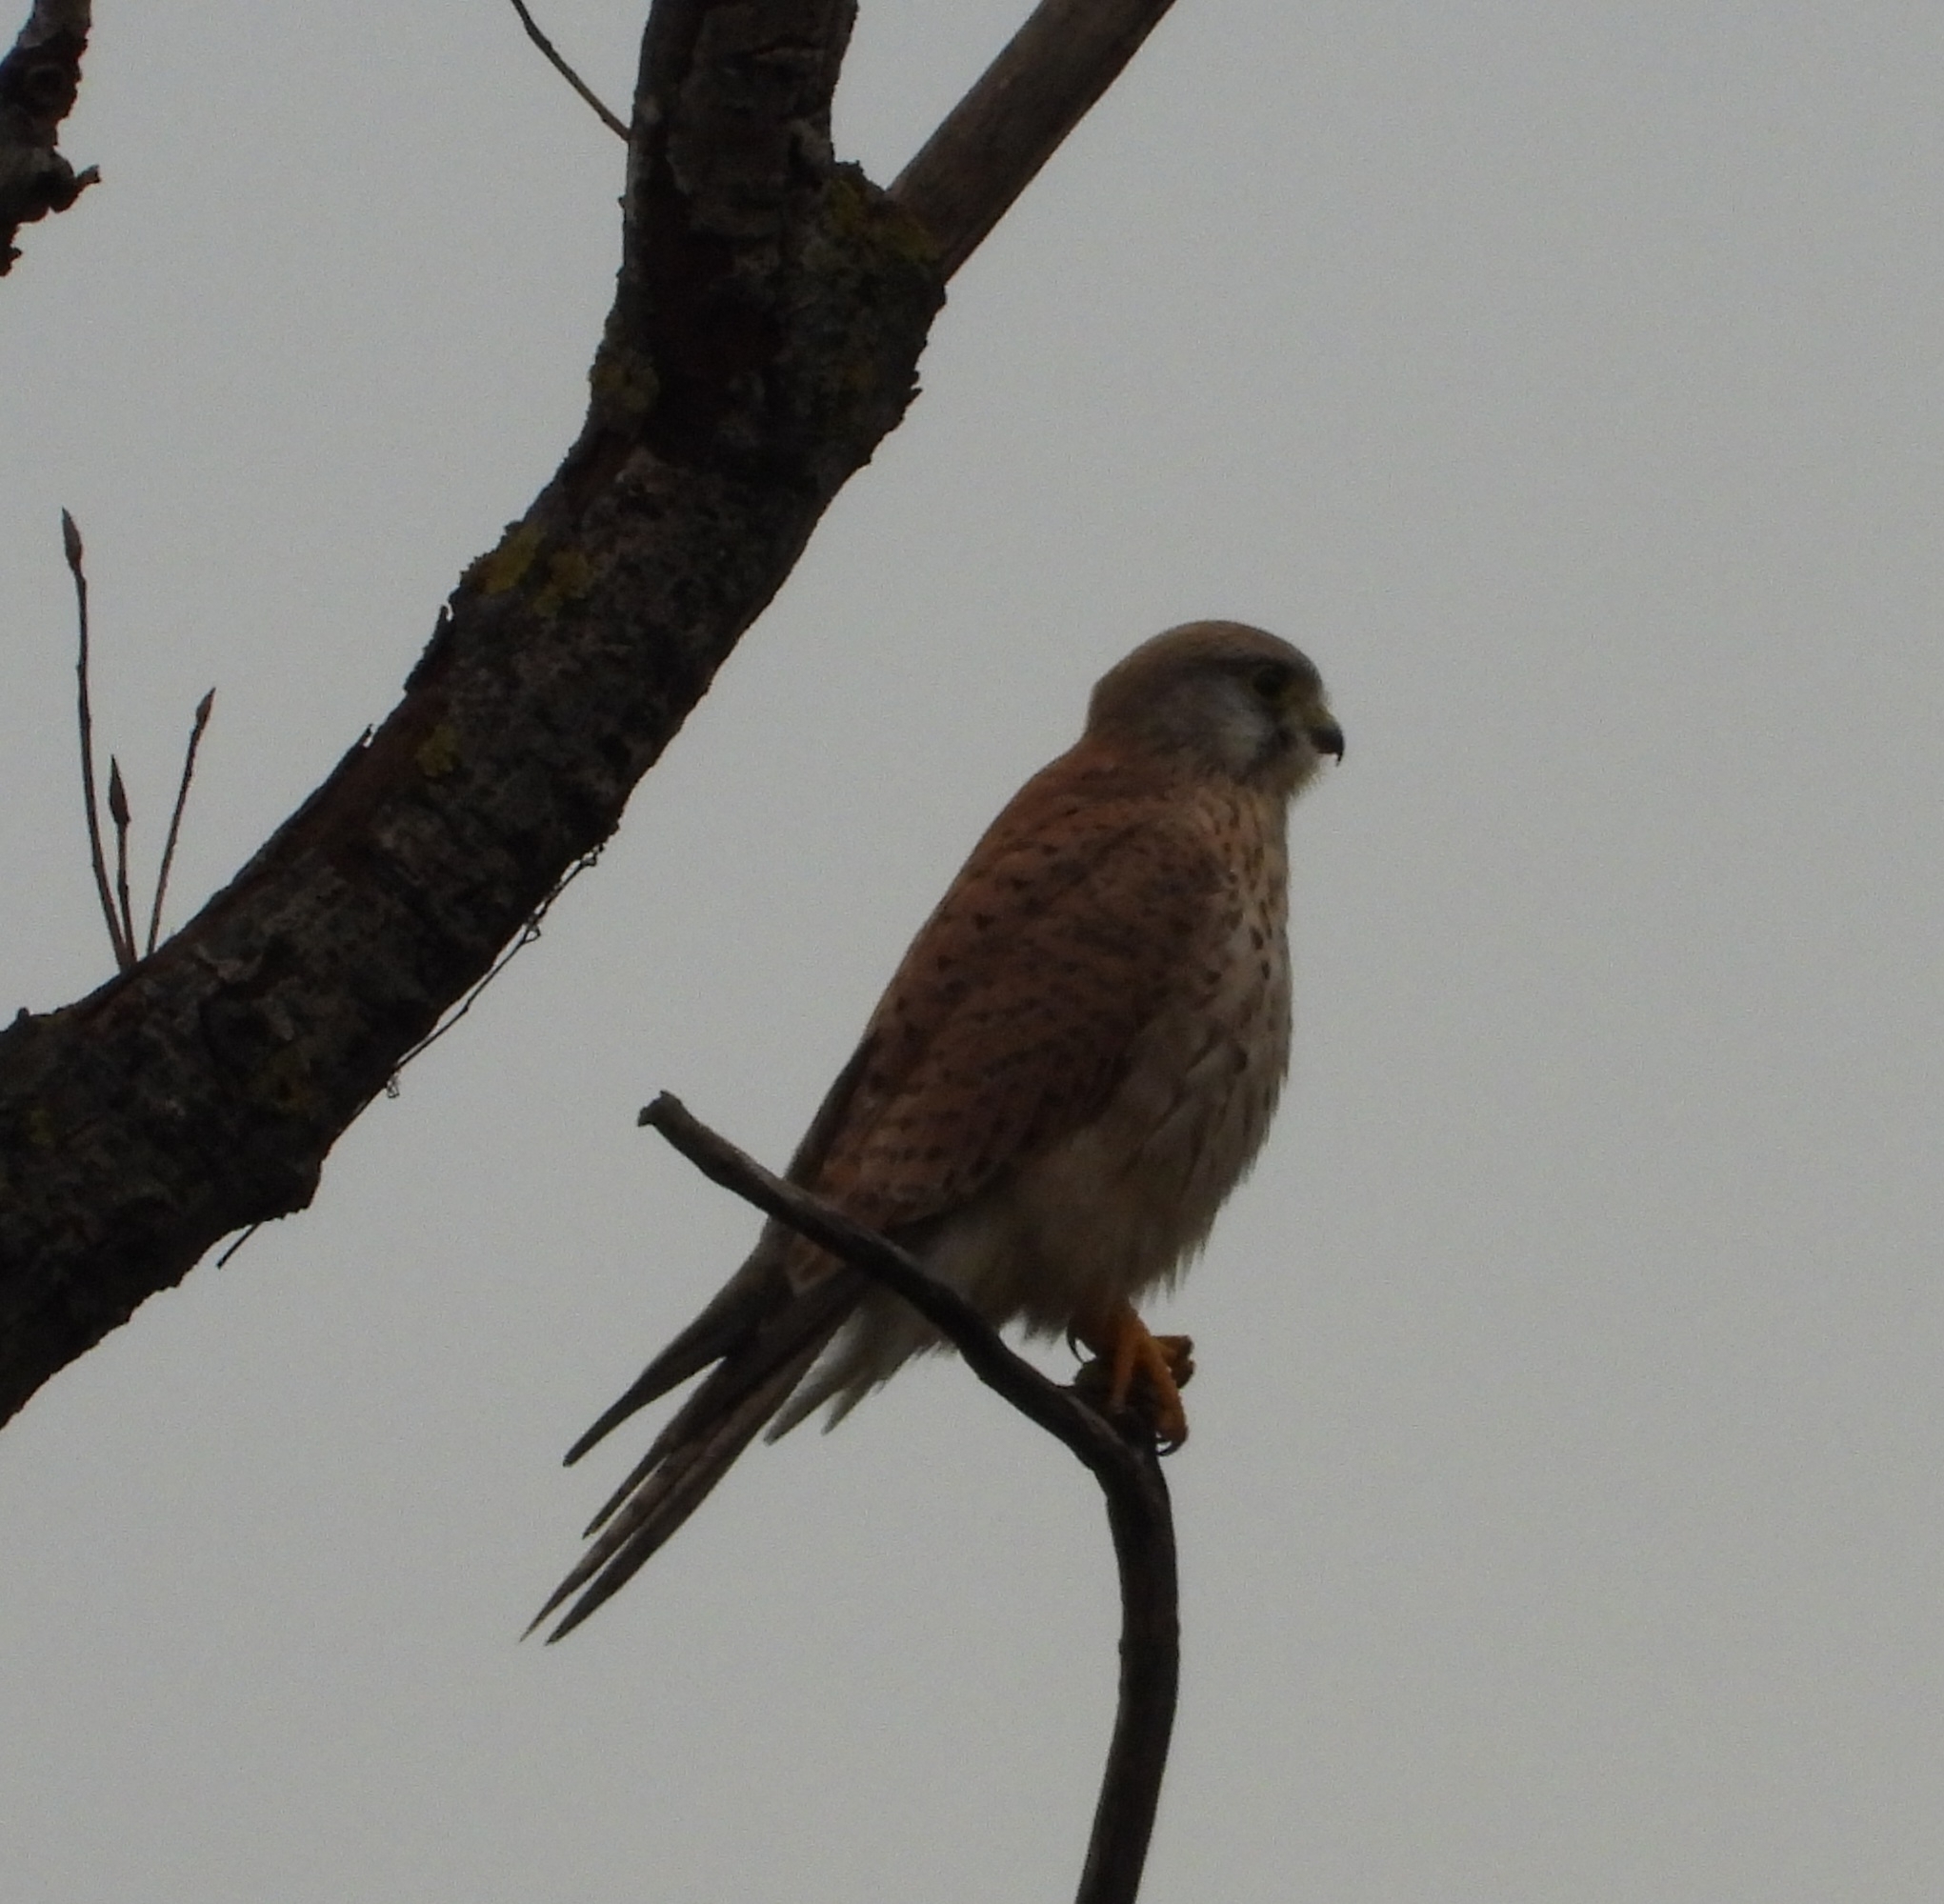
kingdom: Animalia
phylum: Chordata
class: Aves
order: Falconiformes
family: Falconidae
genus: Falco
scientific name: Falco tinnunculus
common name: Common kestrel
